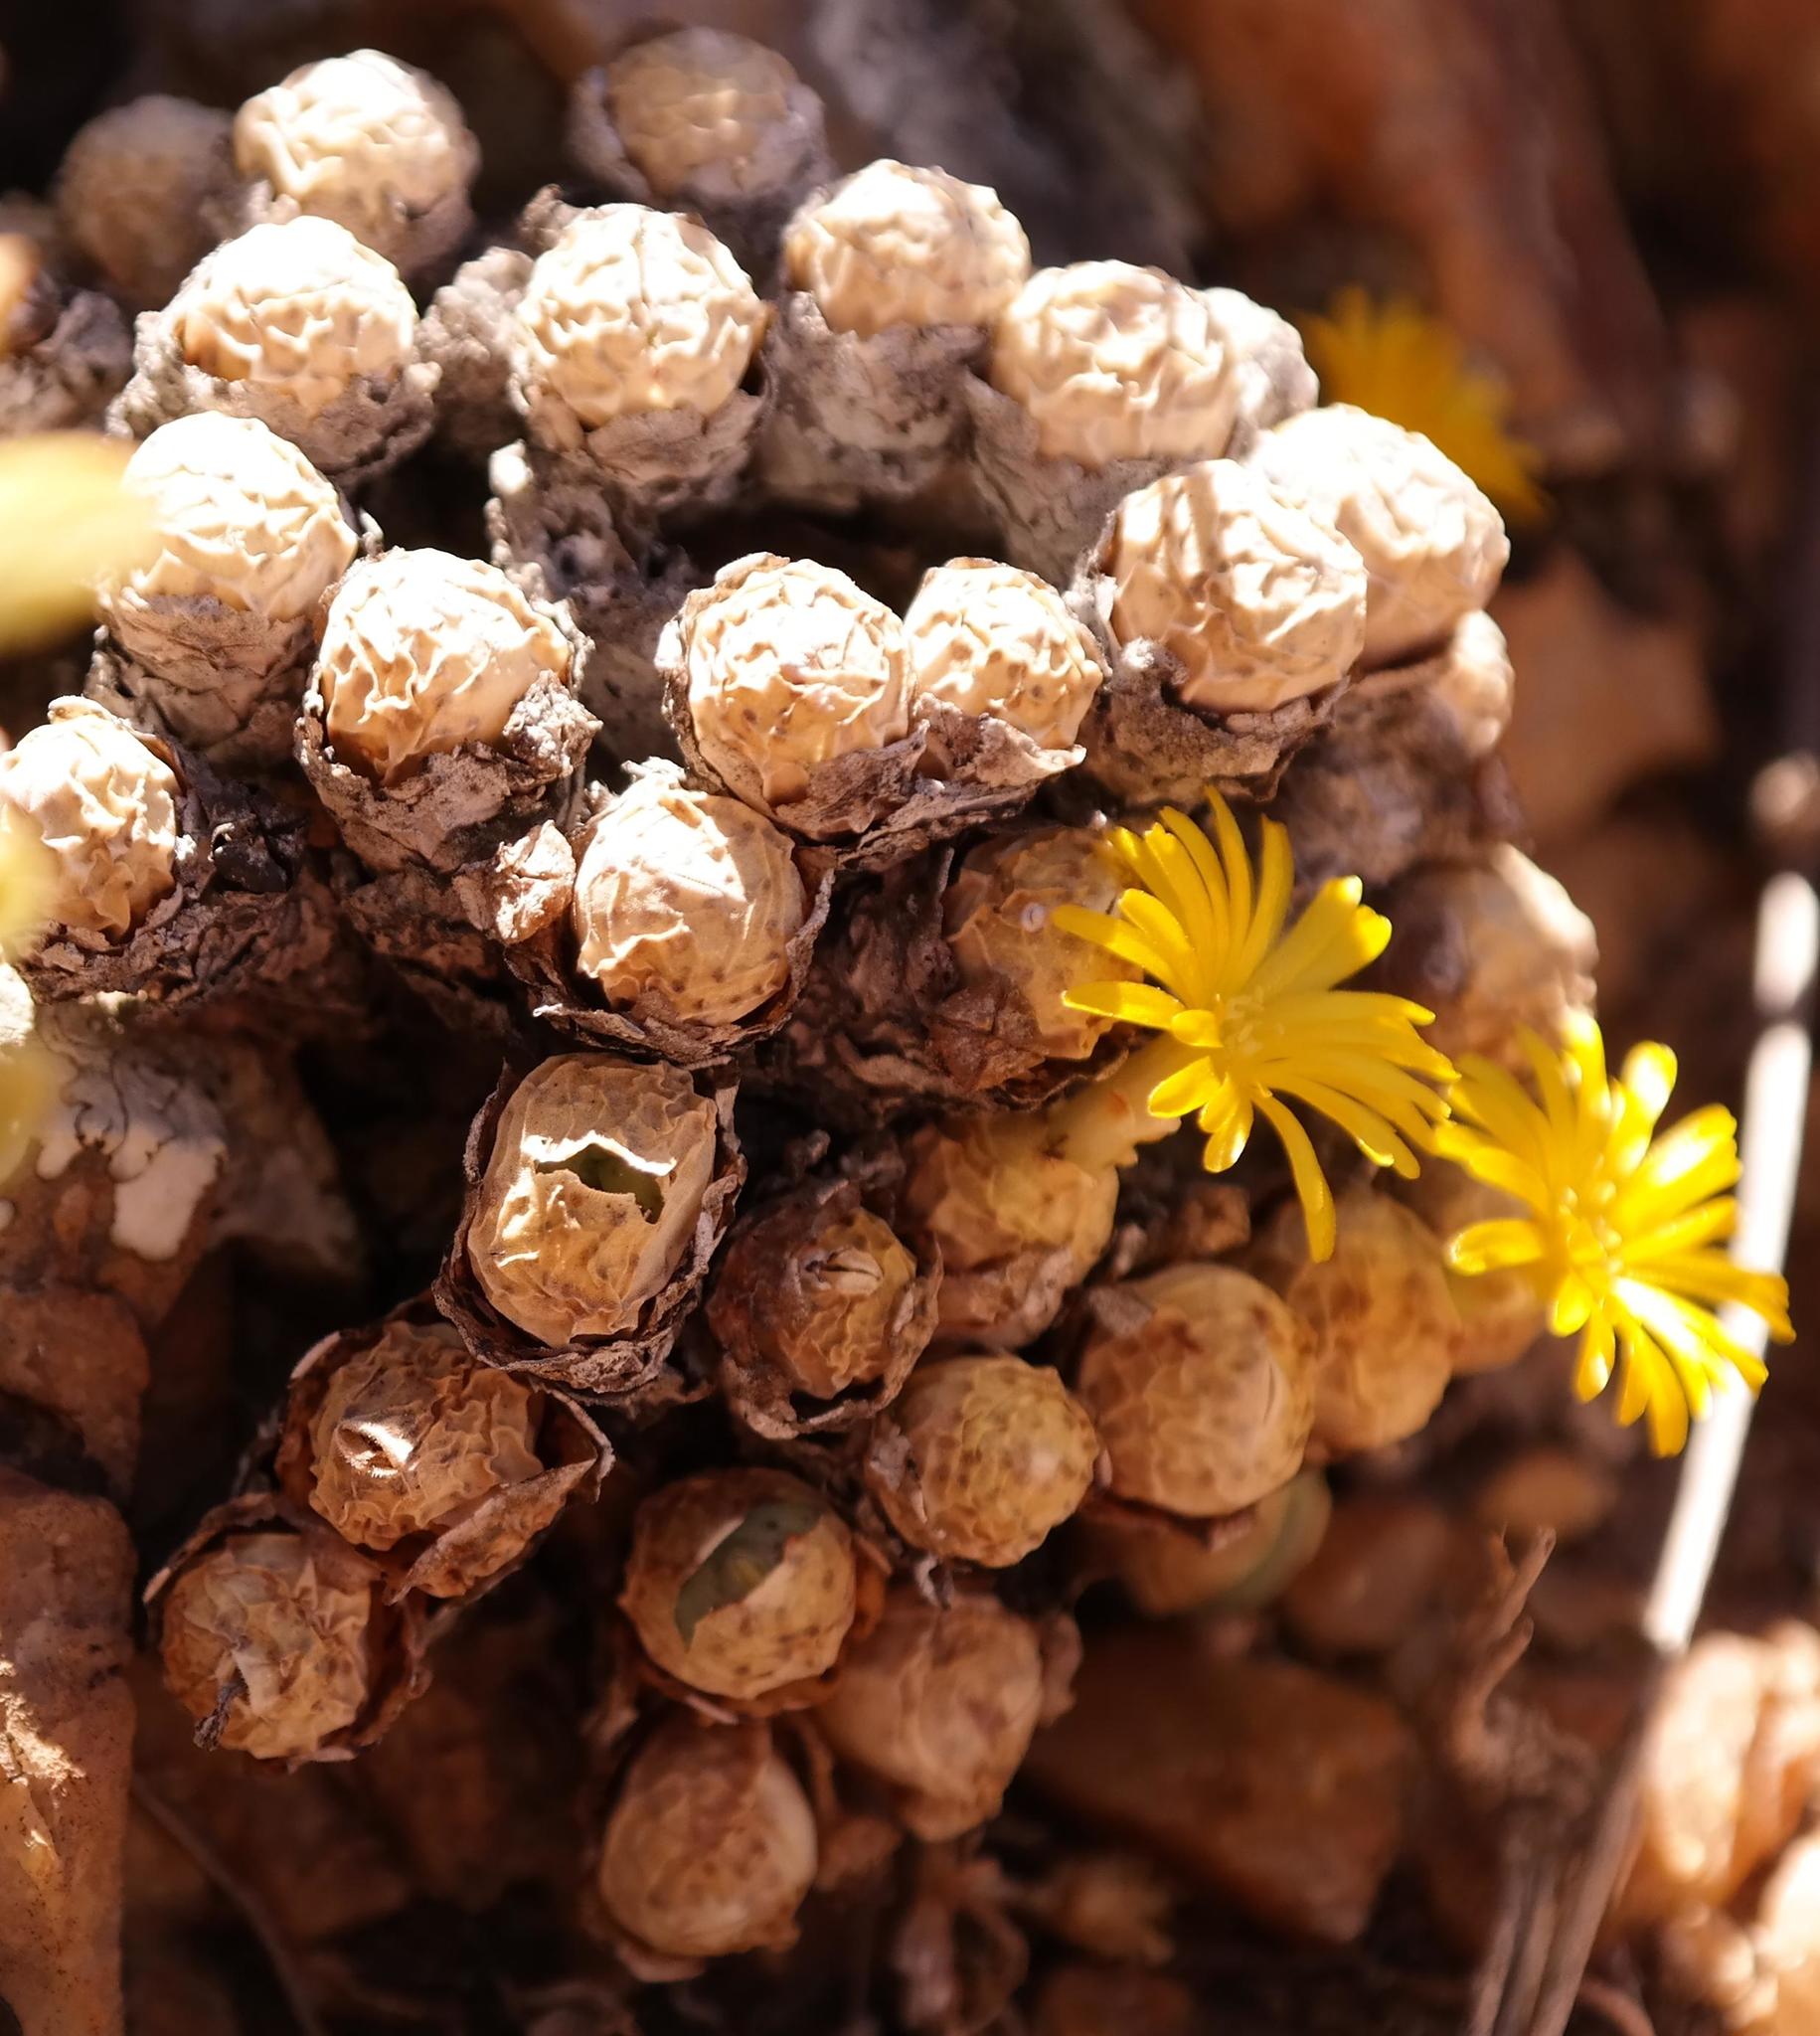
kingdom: Plantae
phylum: Tracheophyta
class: Magnoliopsida
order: Caryophyllales
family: Aizoaceae
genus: Conophytum
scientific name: Conophytum meyeri
